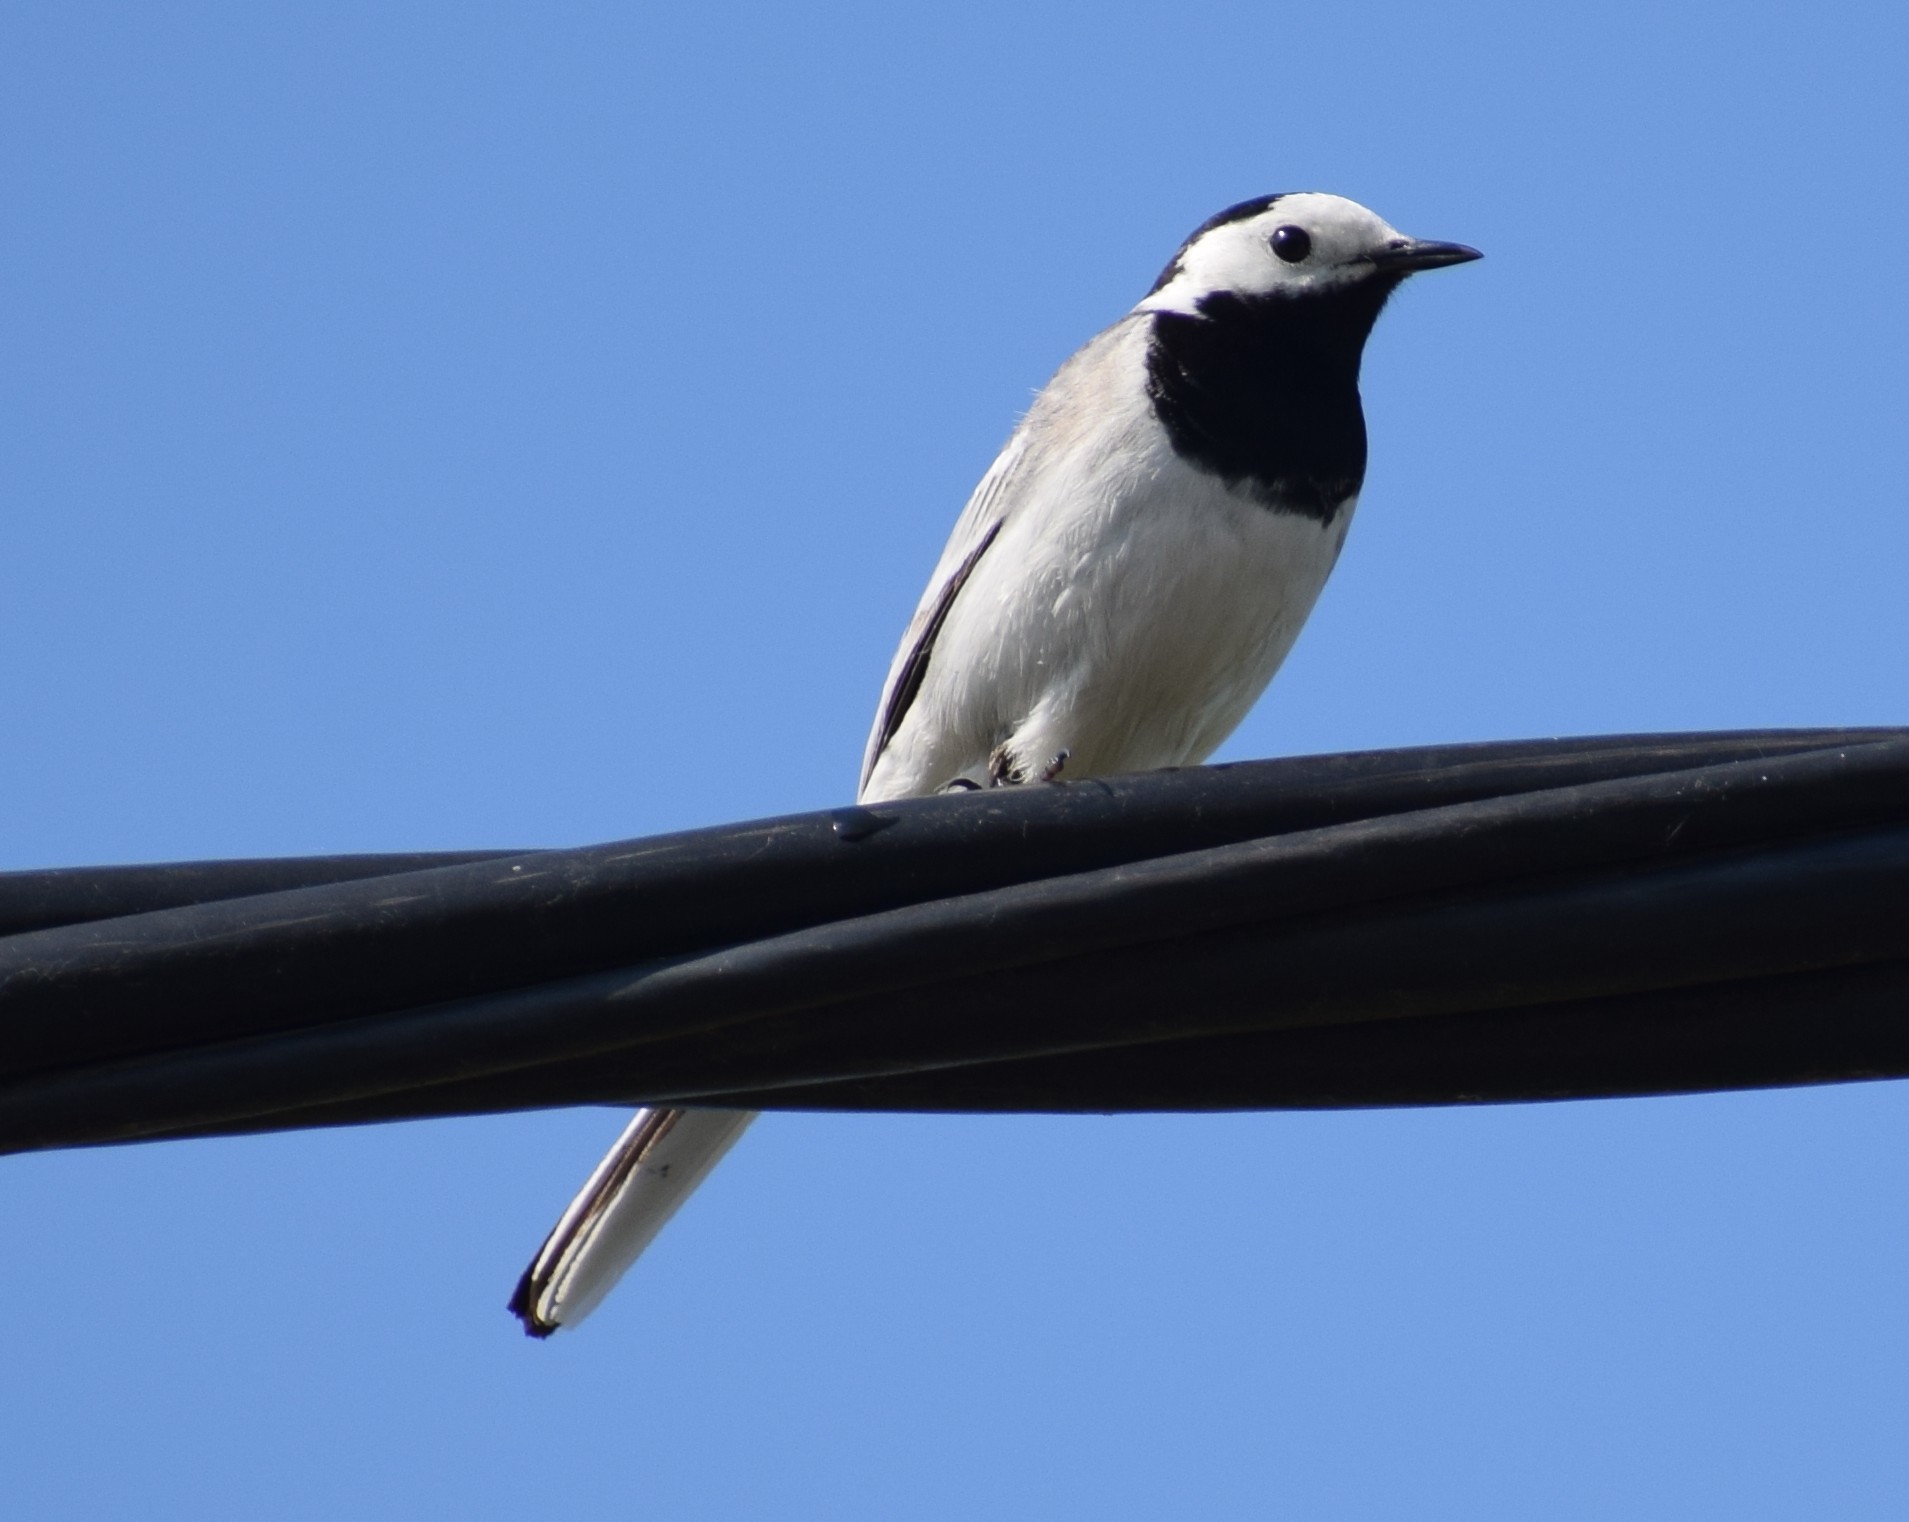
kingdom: Animalia
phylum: Chordata
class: Aves
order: Passeriformes
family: Motacillidae
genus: Motacilla
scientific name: Motacilla alba
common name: White wagtail
